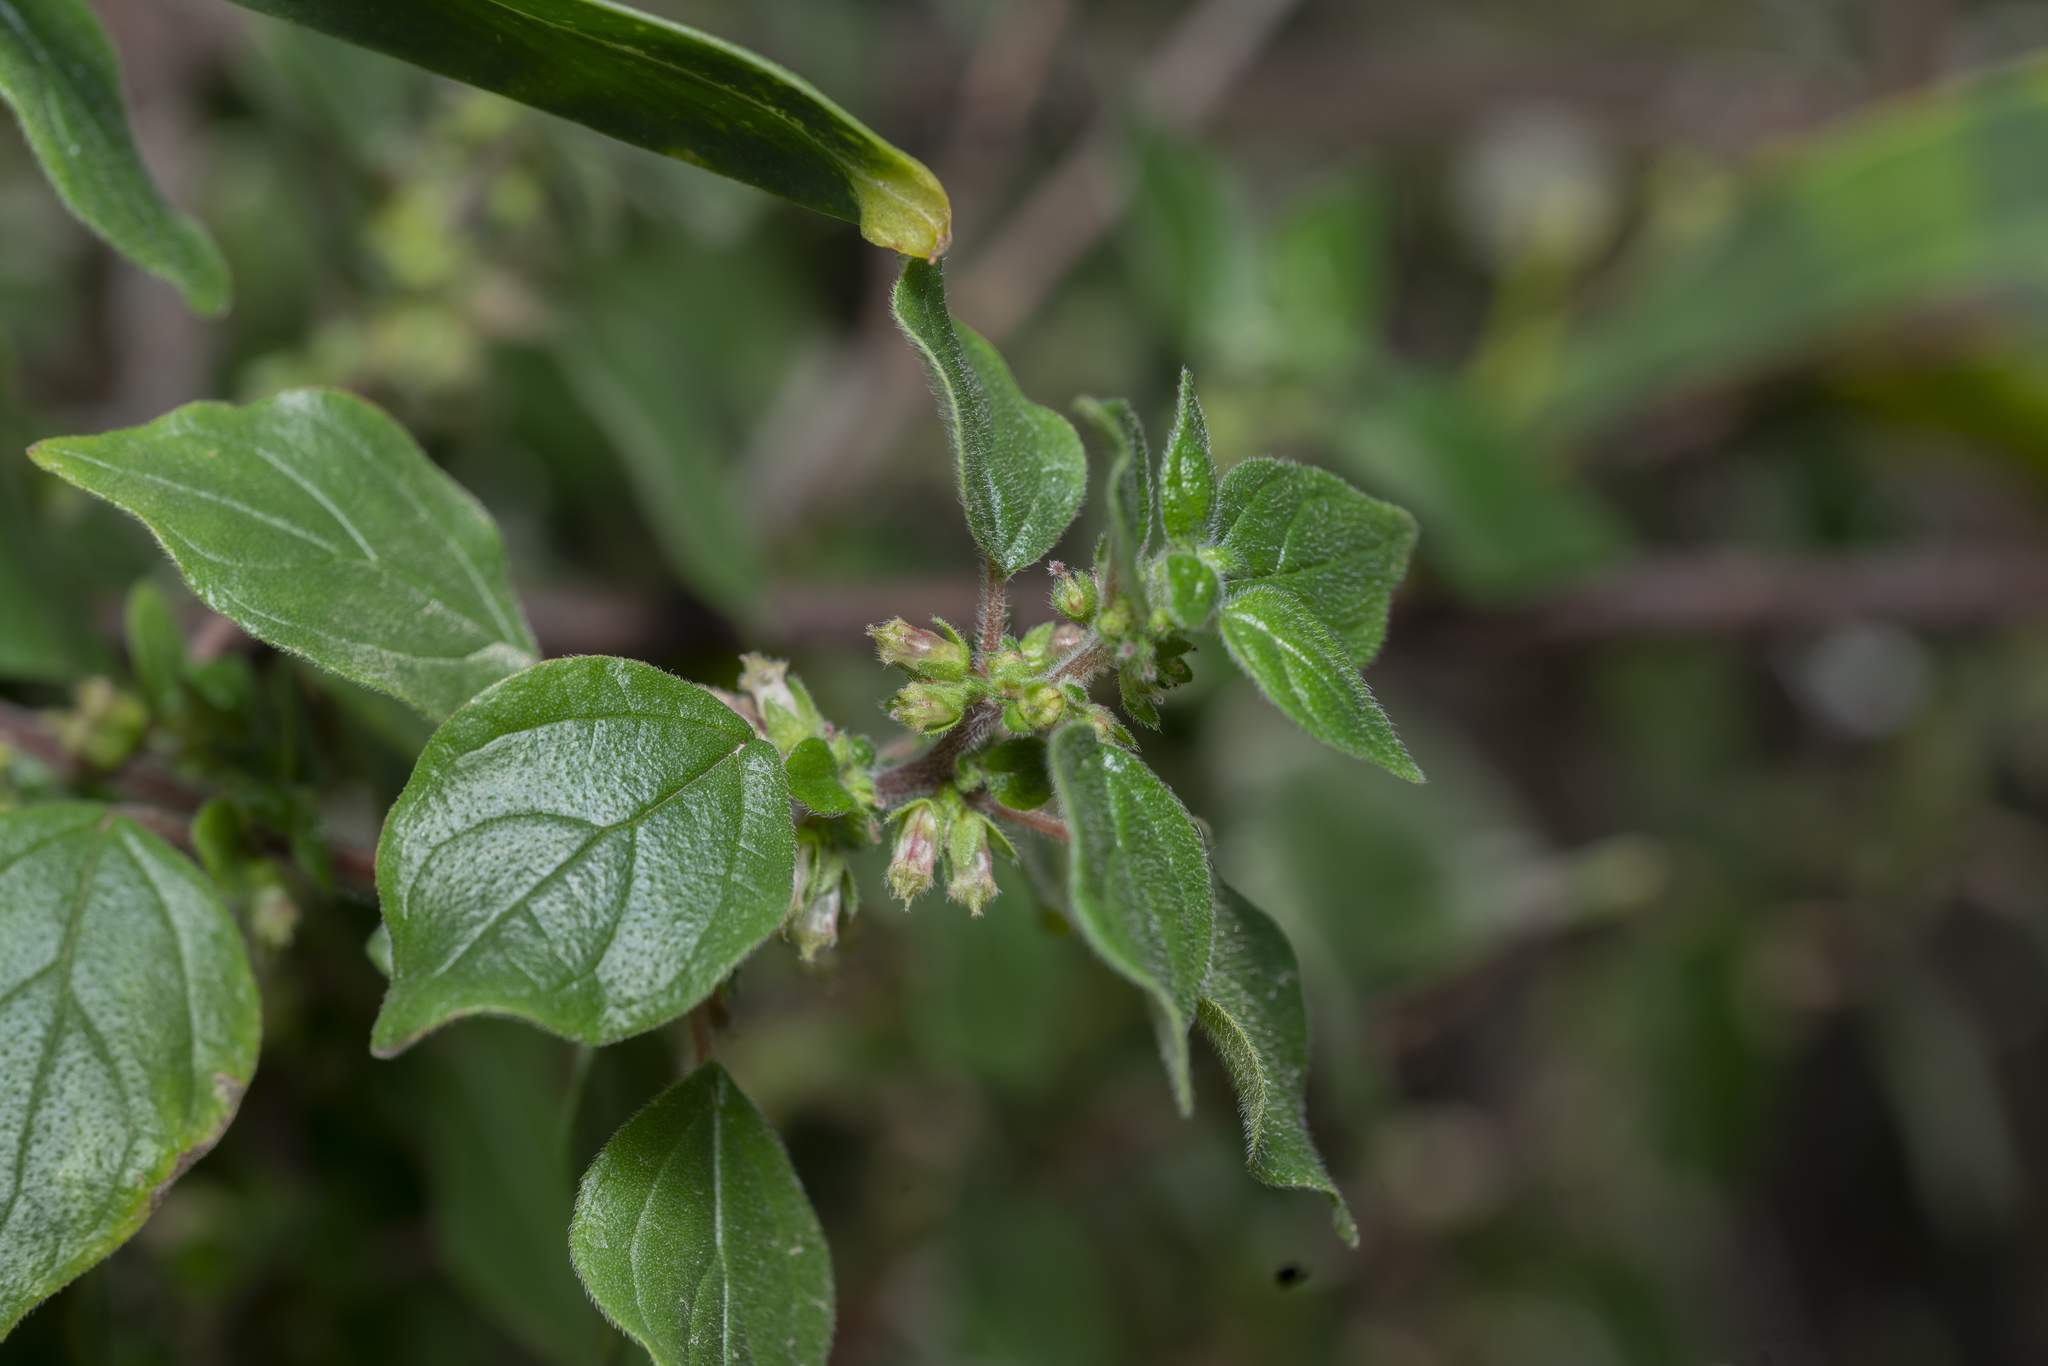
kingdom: Plantae
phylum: Tracheophyta
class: Magnoliopsida
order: Rosales
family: Urticaceae
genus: Parietaria
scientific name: Parietaria judaica
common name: Pellitory-of-the-wall
